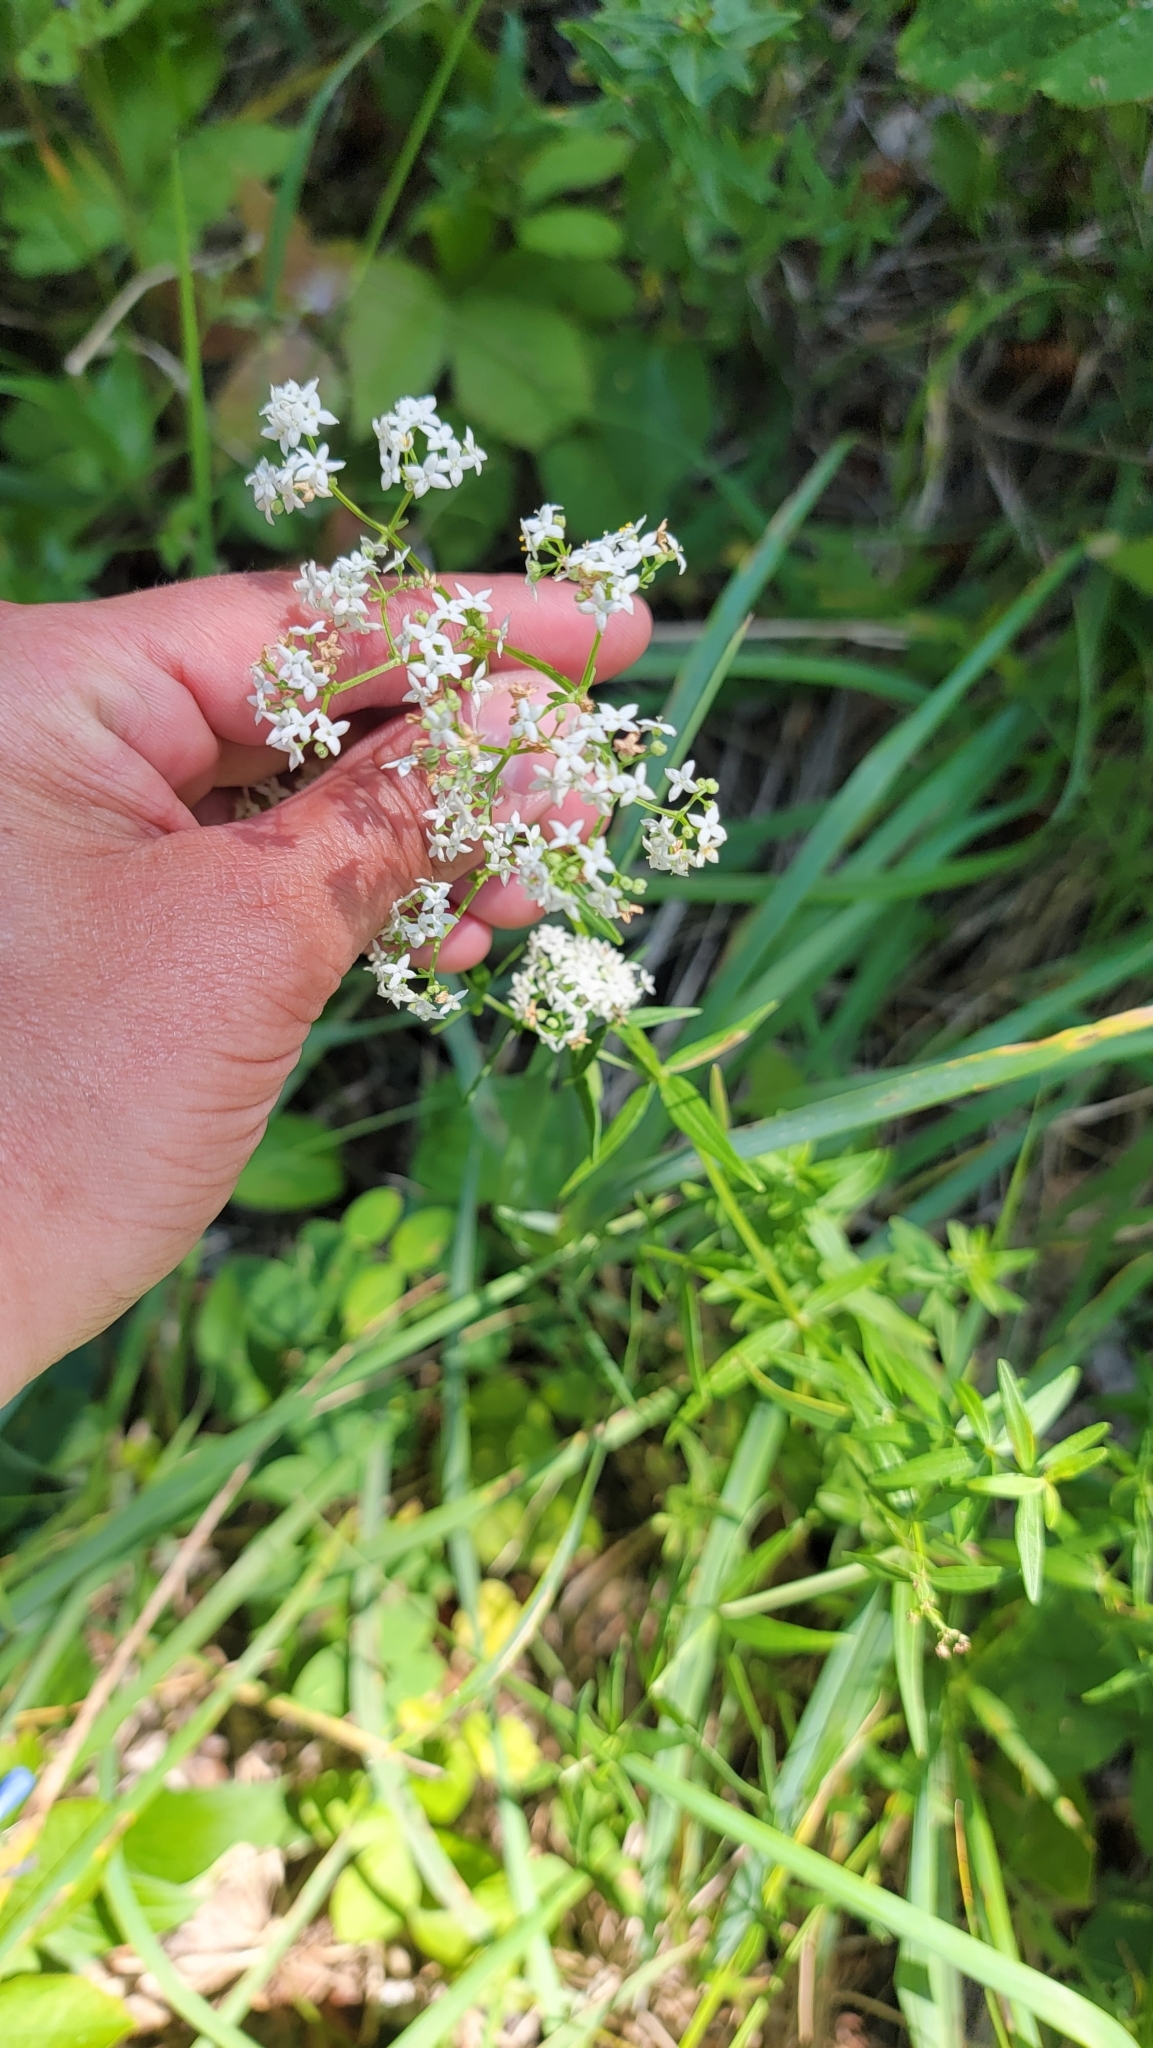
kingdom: Plantae
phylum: Tracheophyta
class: Magnoliopsida
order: Gentianales
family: Rubiaceae
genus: Galium
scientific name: Galium boreale
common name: Northern bedstraw
